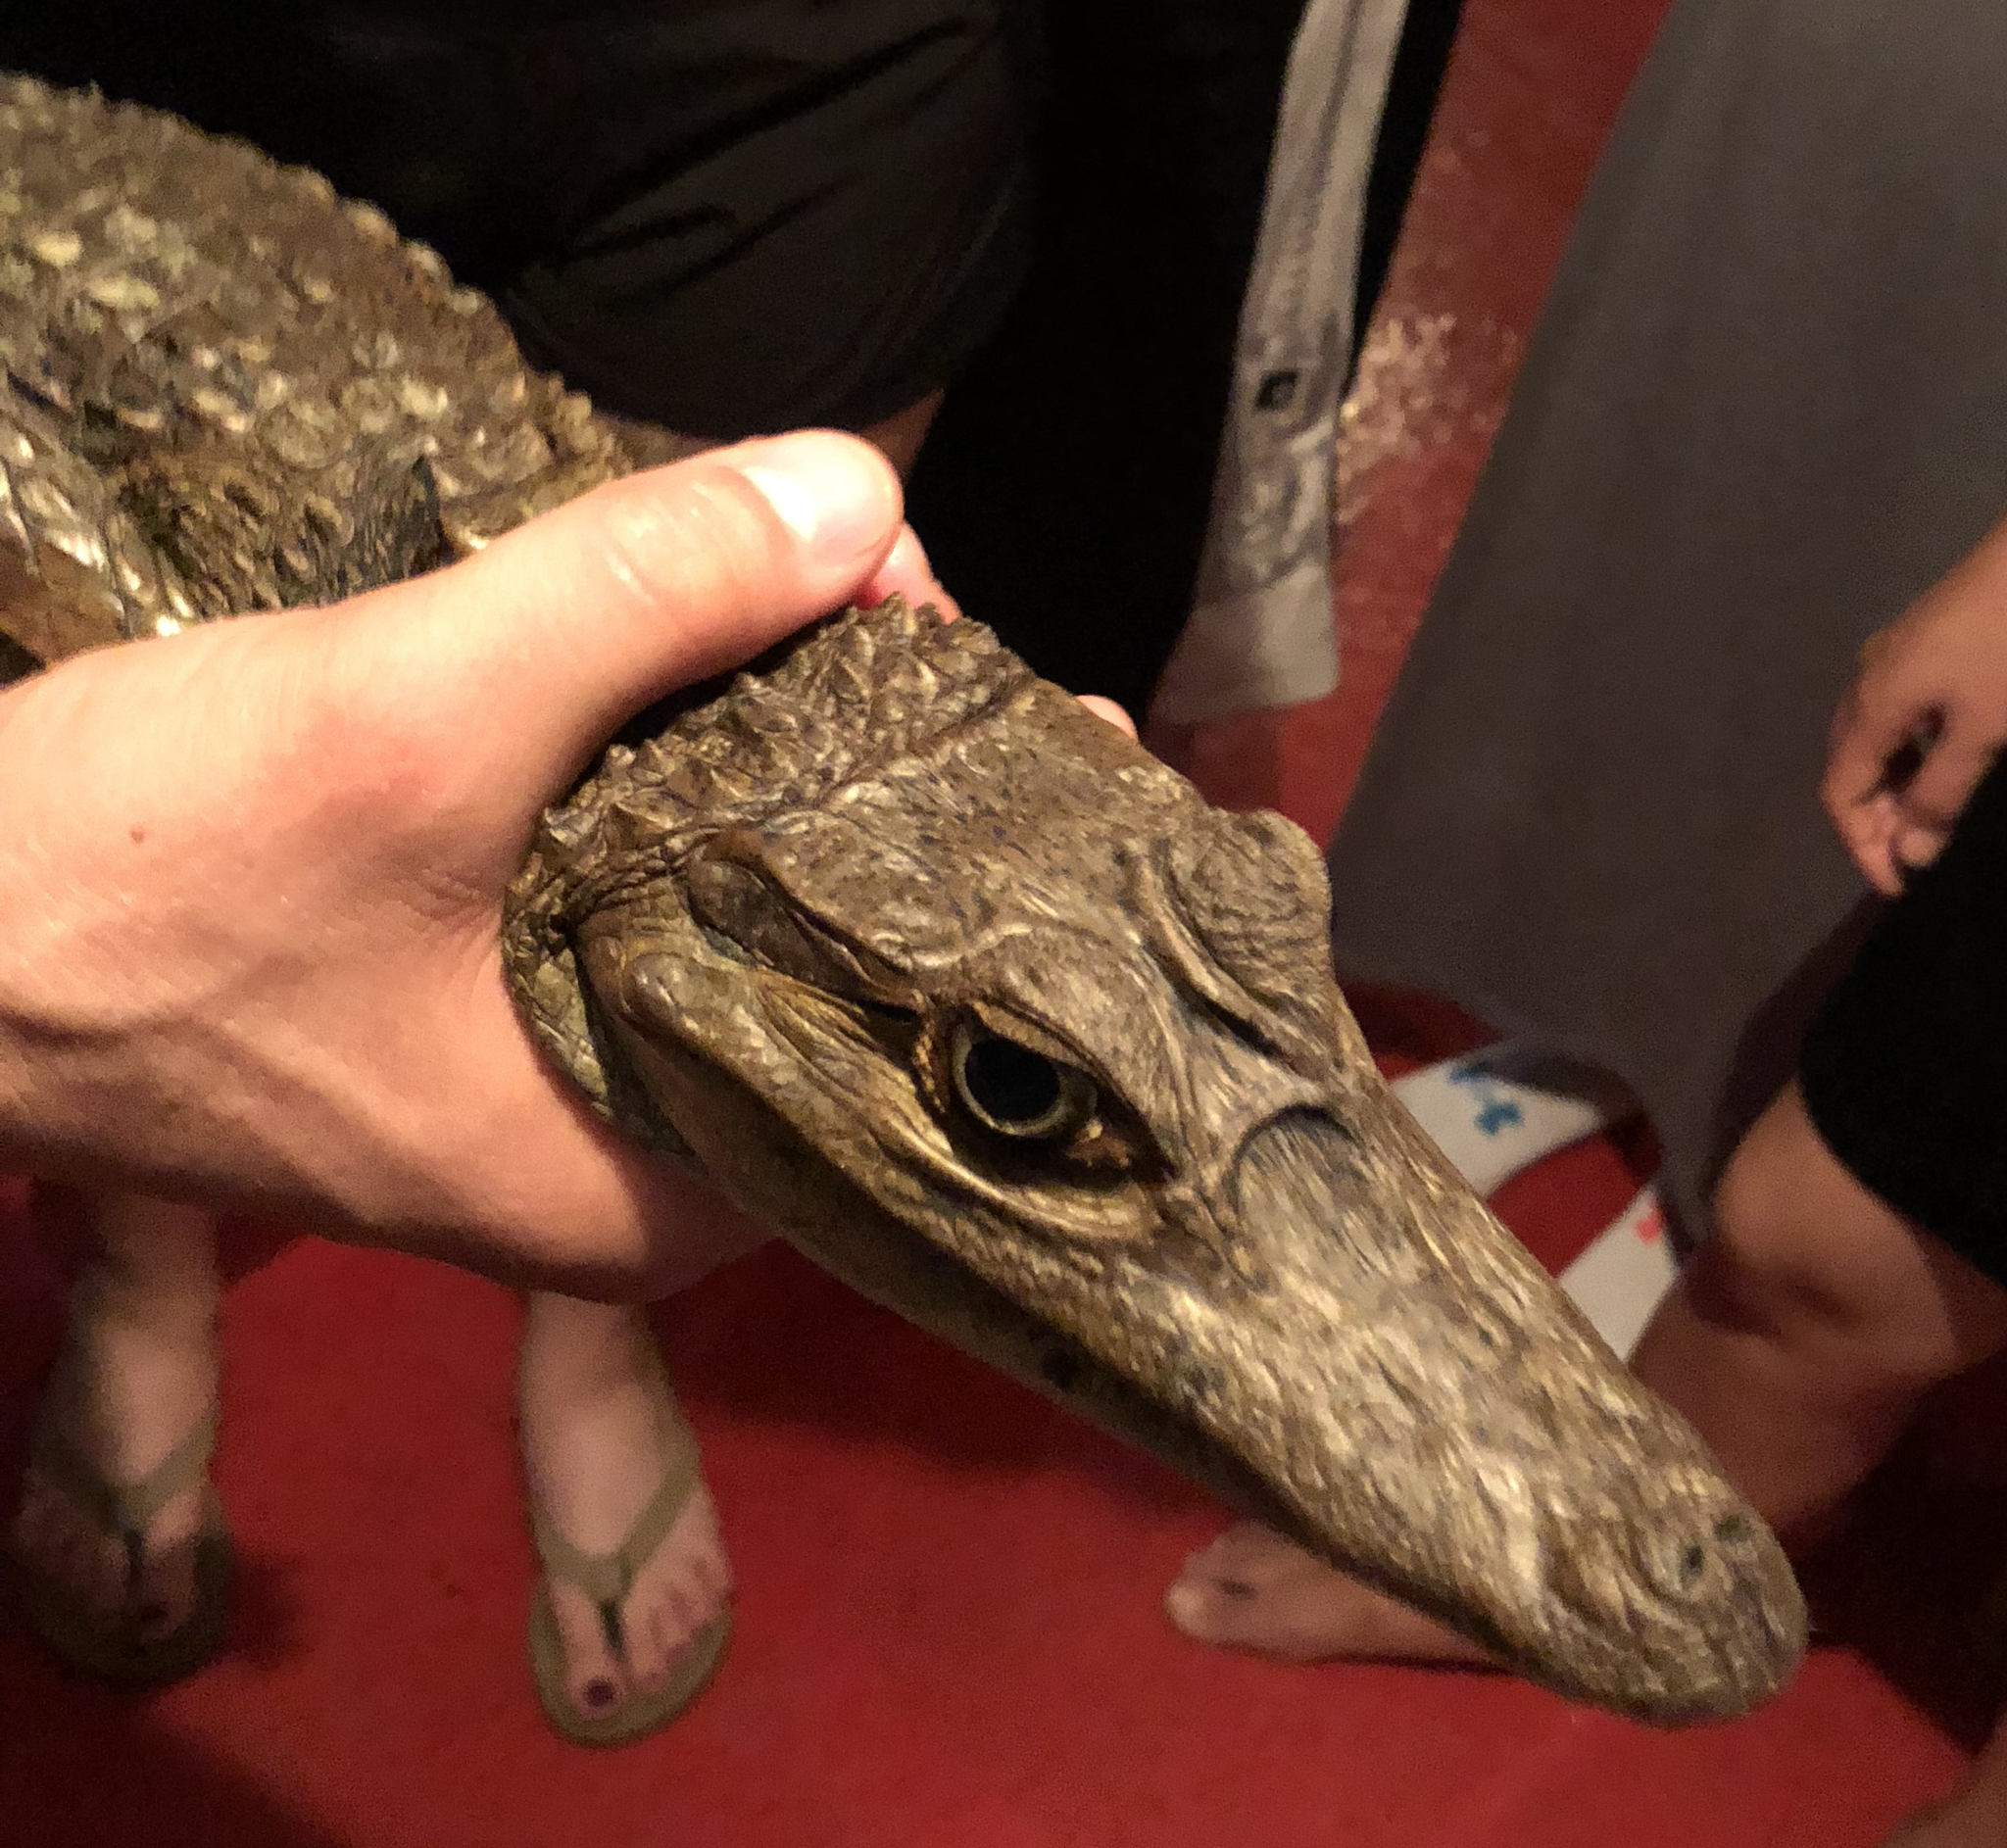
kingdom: Animalia
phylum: Chordata
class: Crocodylia
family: Alligatoridae
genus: Caiman
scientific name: Caiman crocodilus
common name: Common caiman
